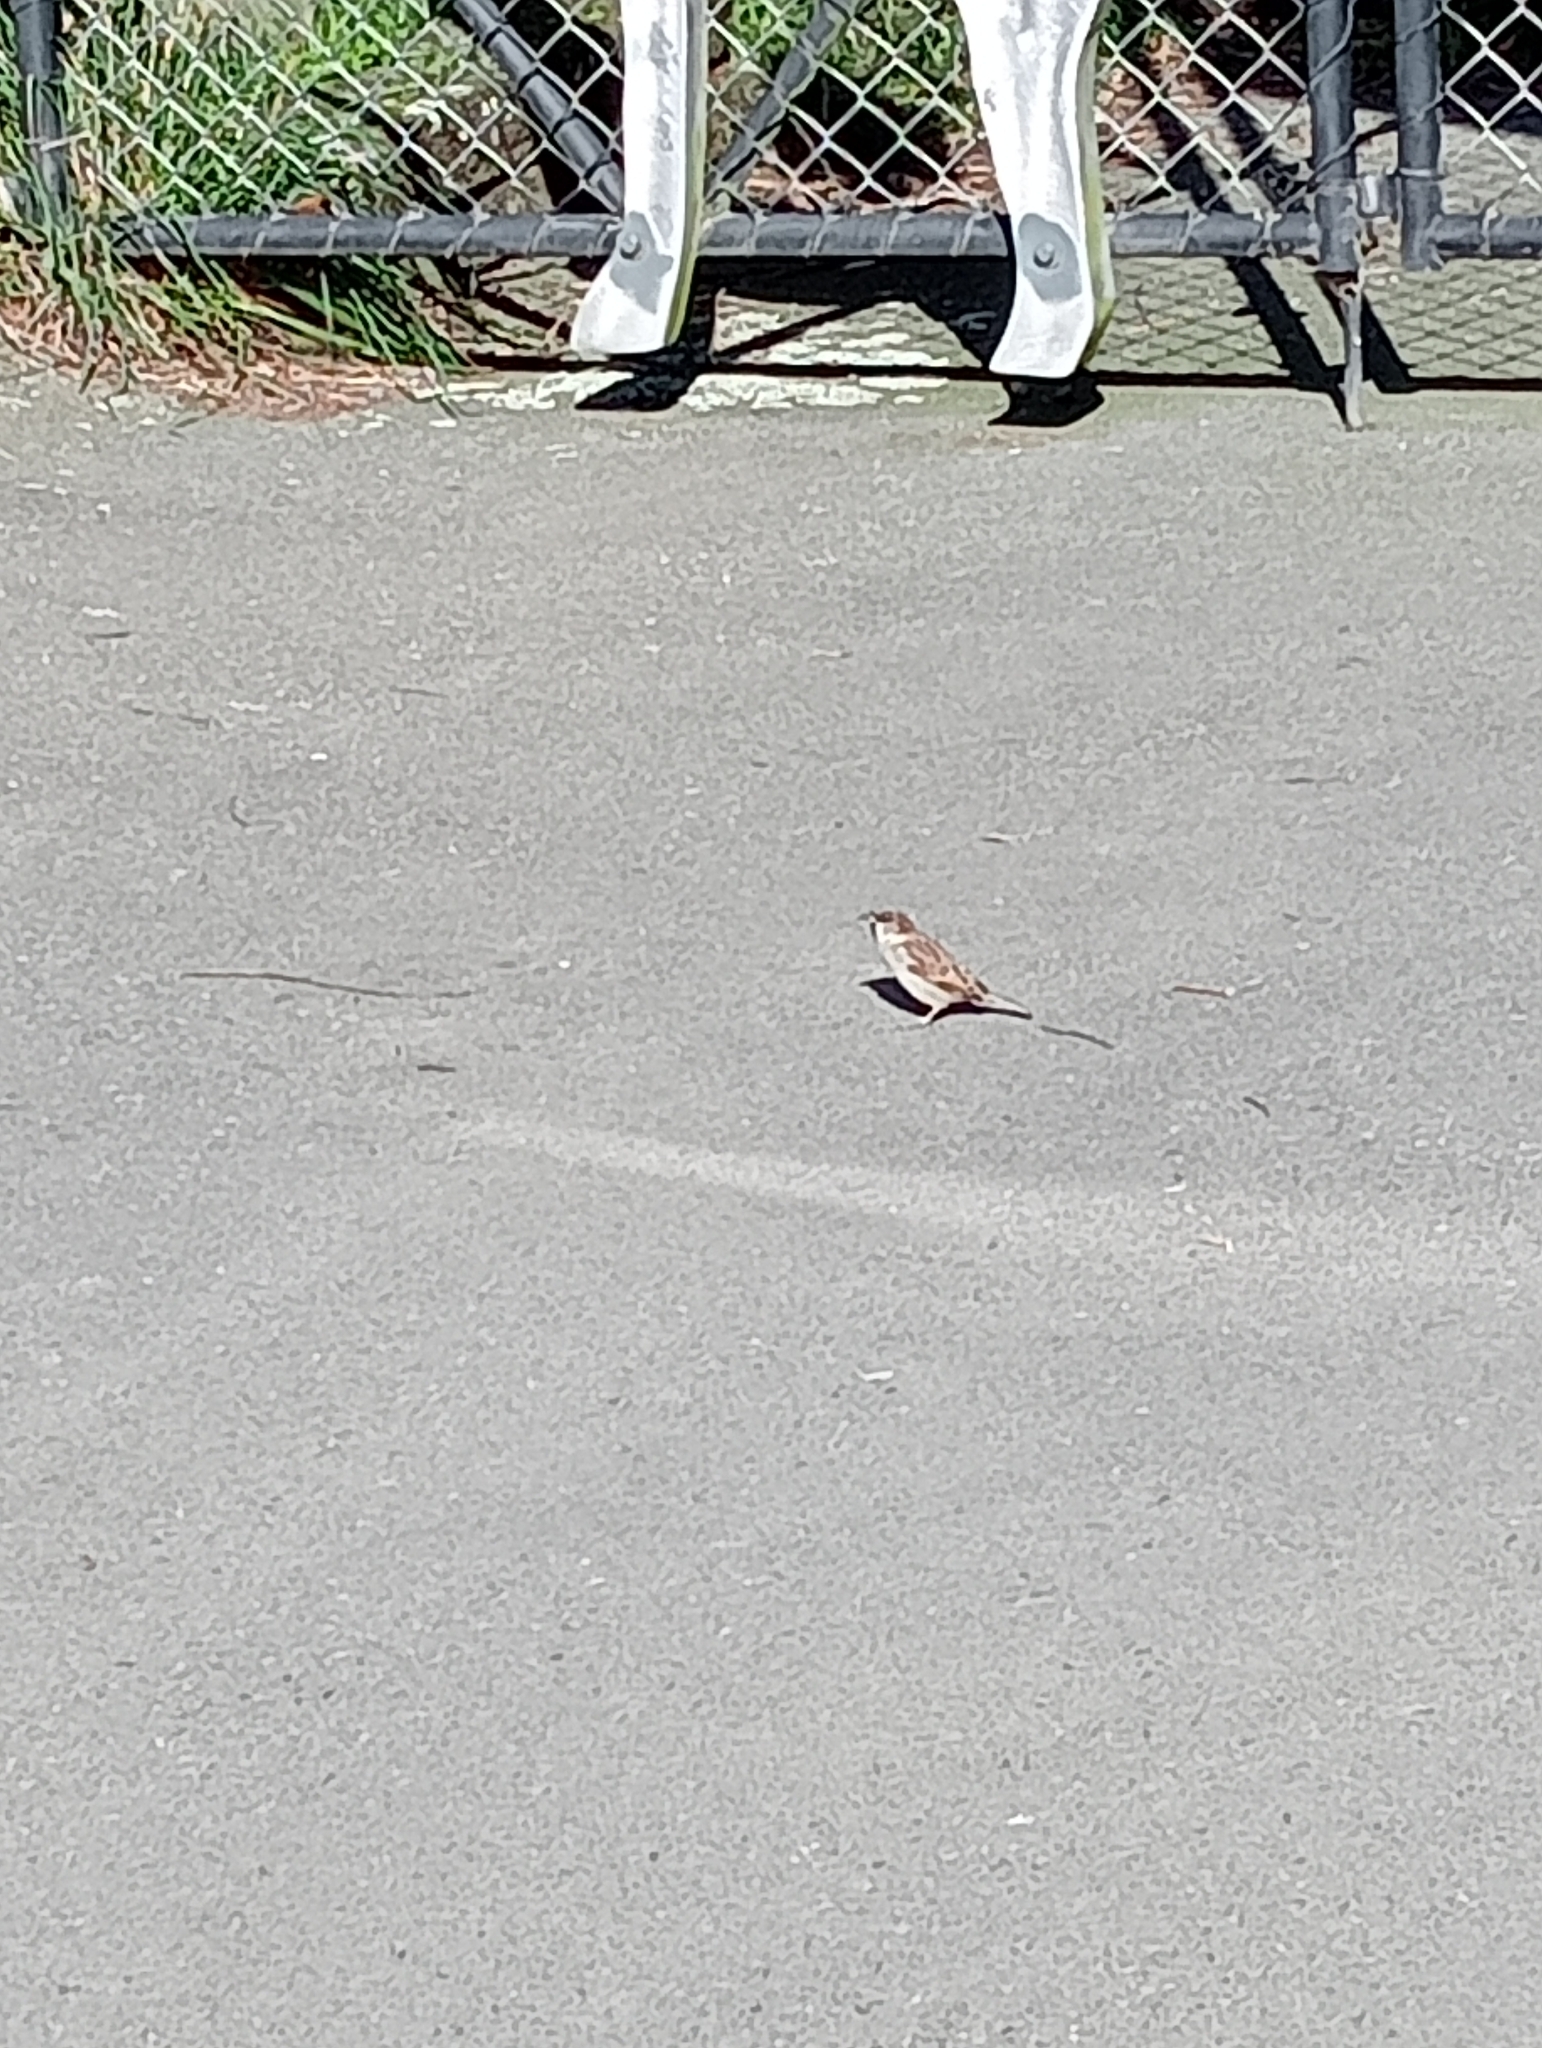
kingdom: Animalia
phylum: Chordata
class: Aves
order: Passeriformes
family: Passeridae
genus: Passer
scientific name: Passer domesticus
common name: House sparrow
